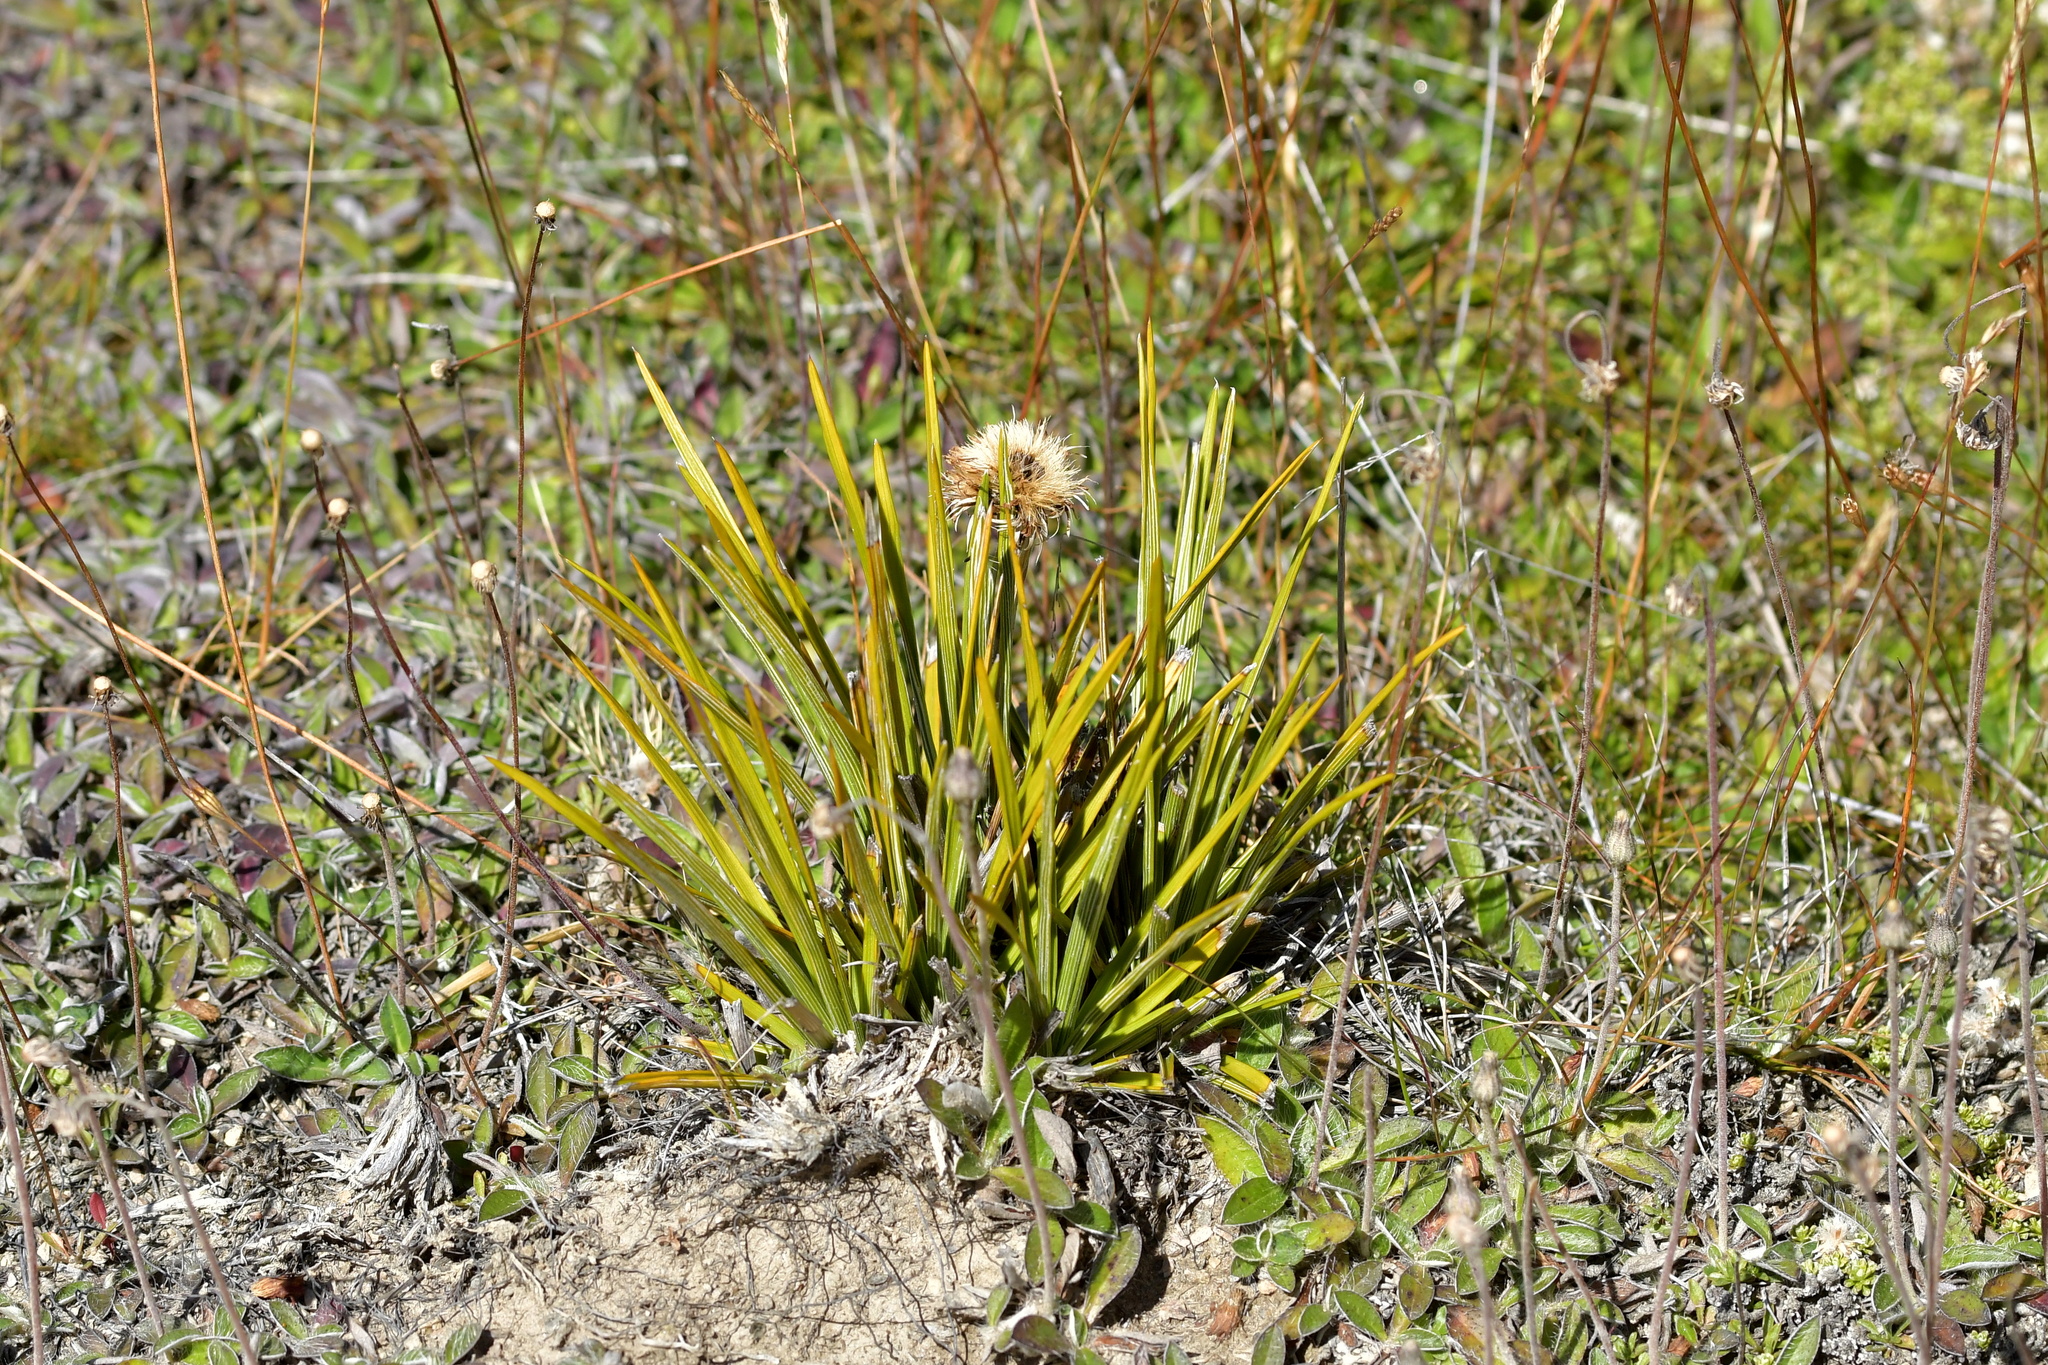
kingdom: Plantae
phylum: Tracheophyta
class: Magnoliopsida
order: Asterales
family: Asteraceae
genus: Celmisia
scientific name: Celmisia lyallii
